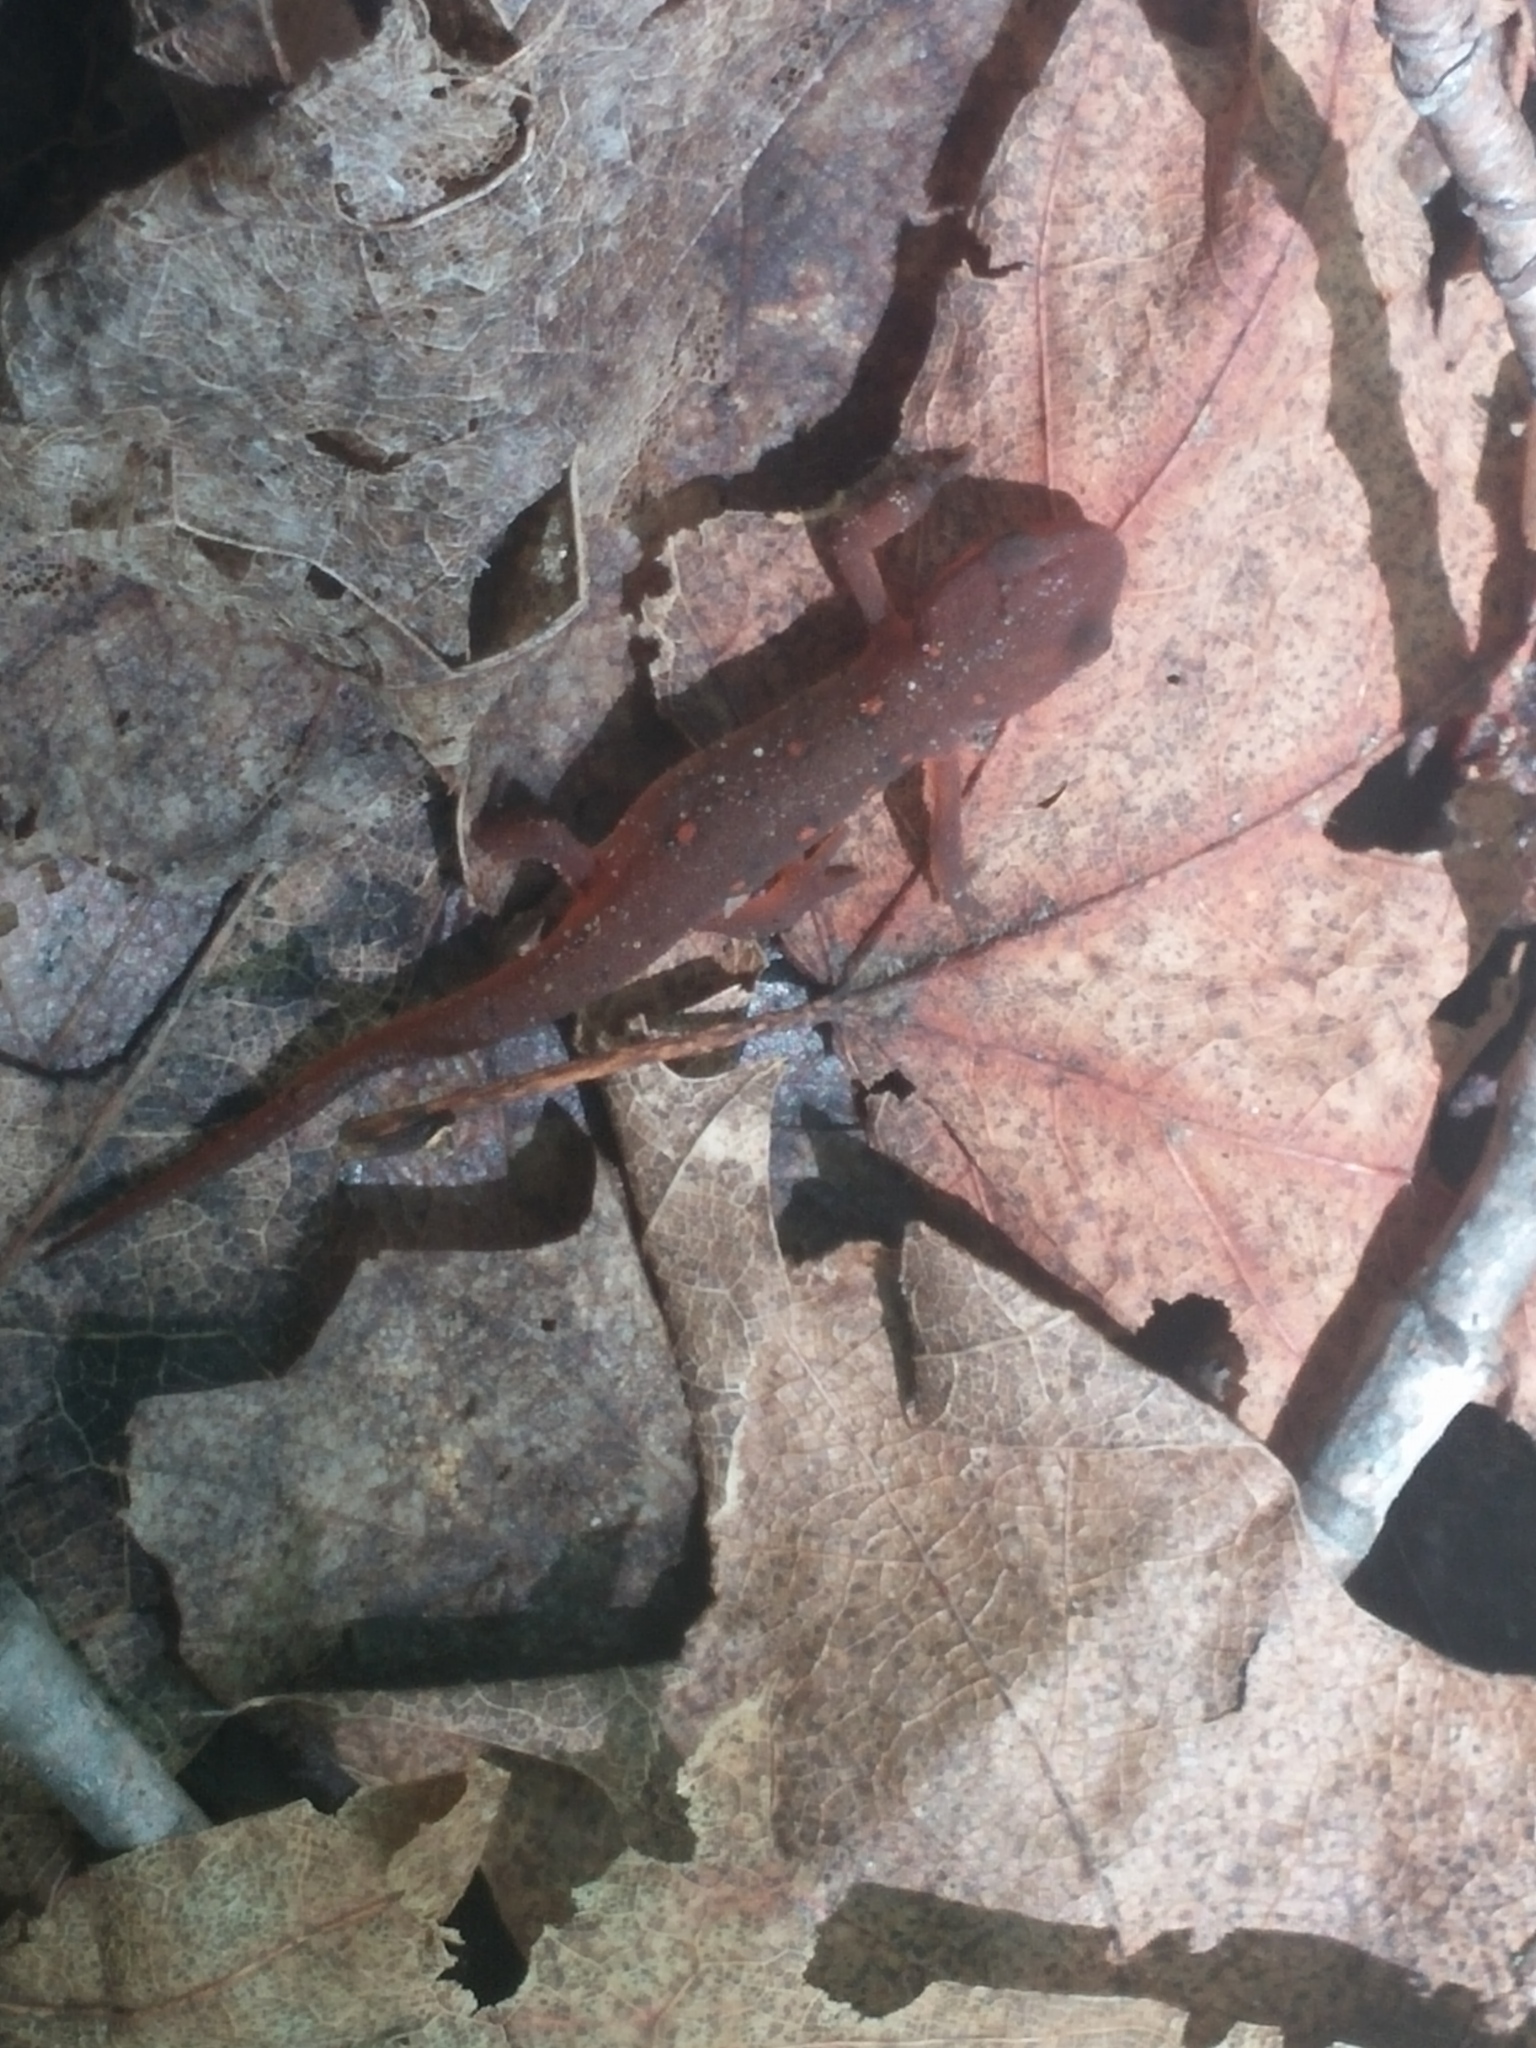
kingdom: Animalia
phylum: Chordata
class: Amphibia
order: Caudata
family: Salamandridae
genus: Notophthalmus
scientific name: Notophthalmus viridescens
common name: Eastern newt
